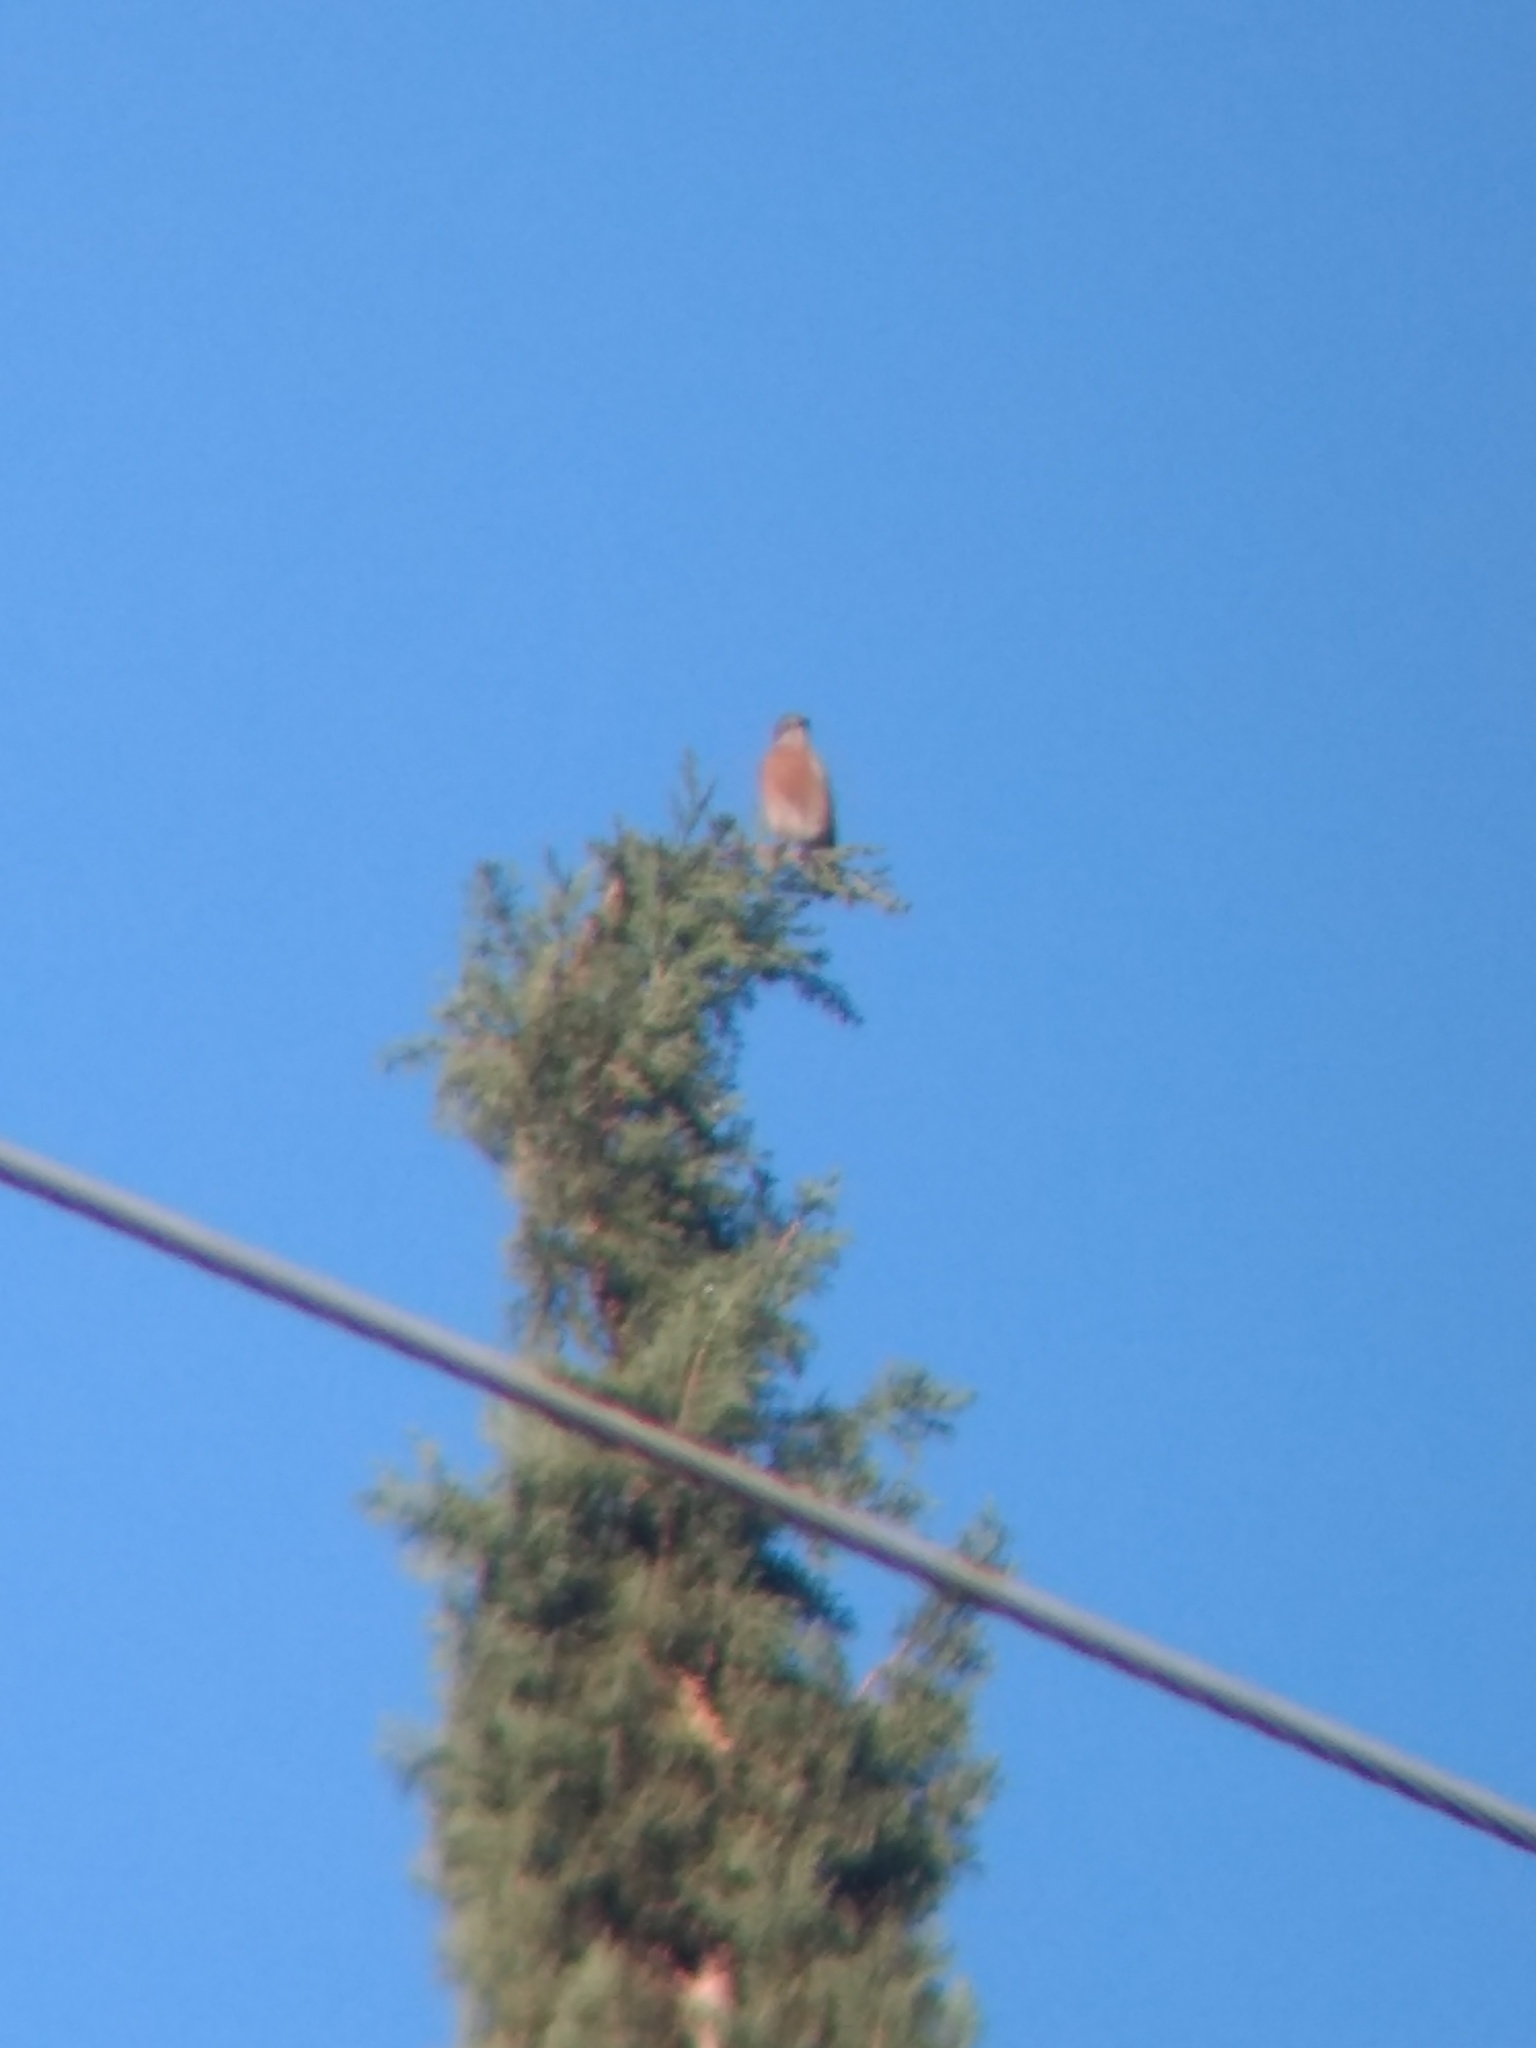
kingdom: Animalia
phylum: Chordata
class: Aves
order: Passeriformes
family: Turdidae
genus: Sialia
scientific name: Sialia mexicana
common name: Western bluebird
